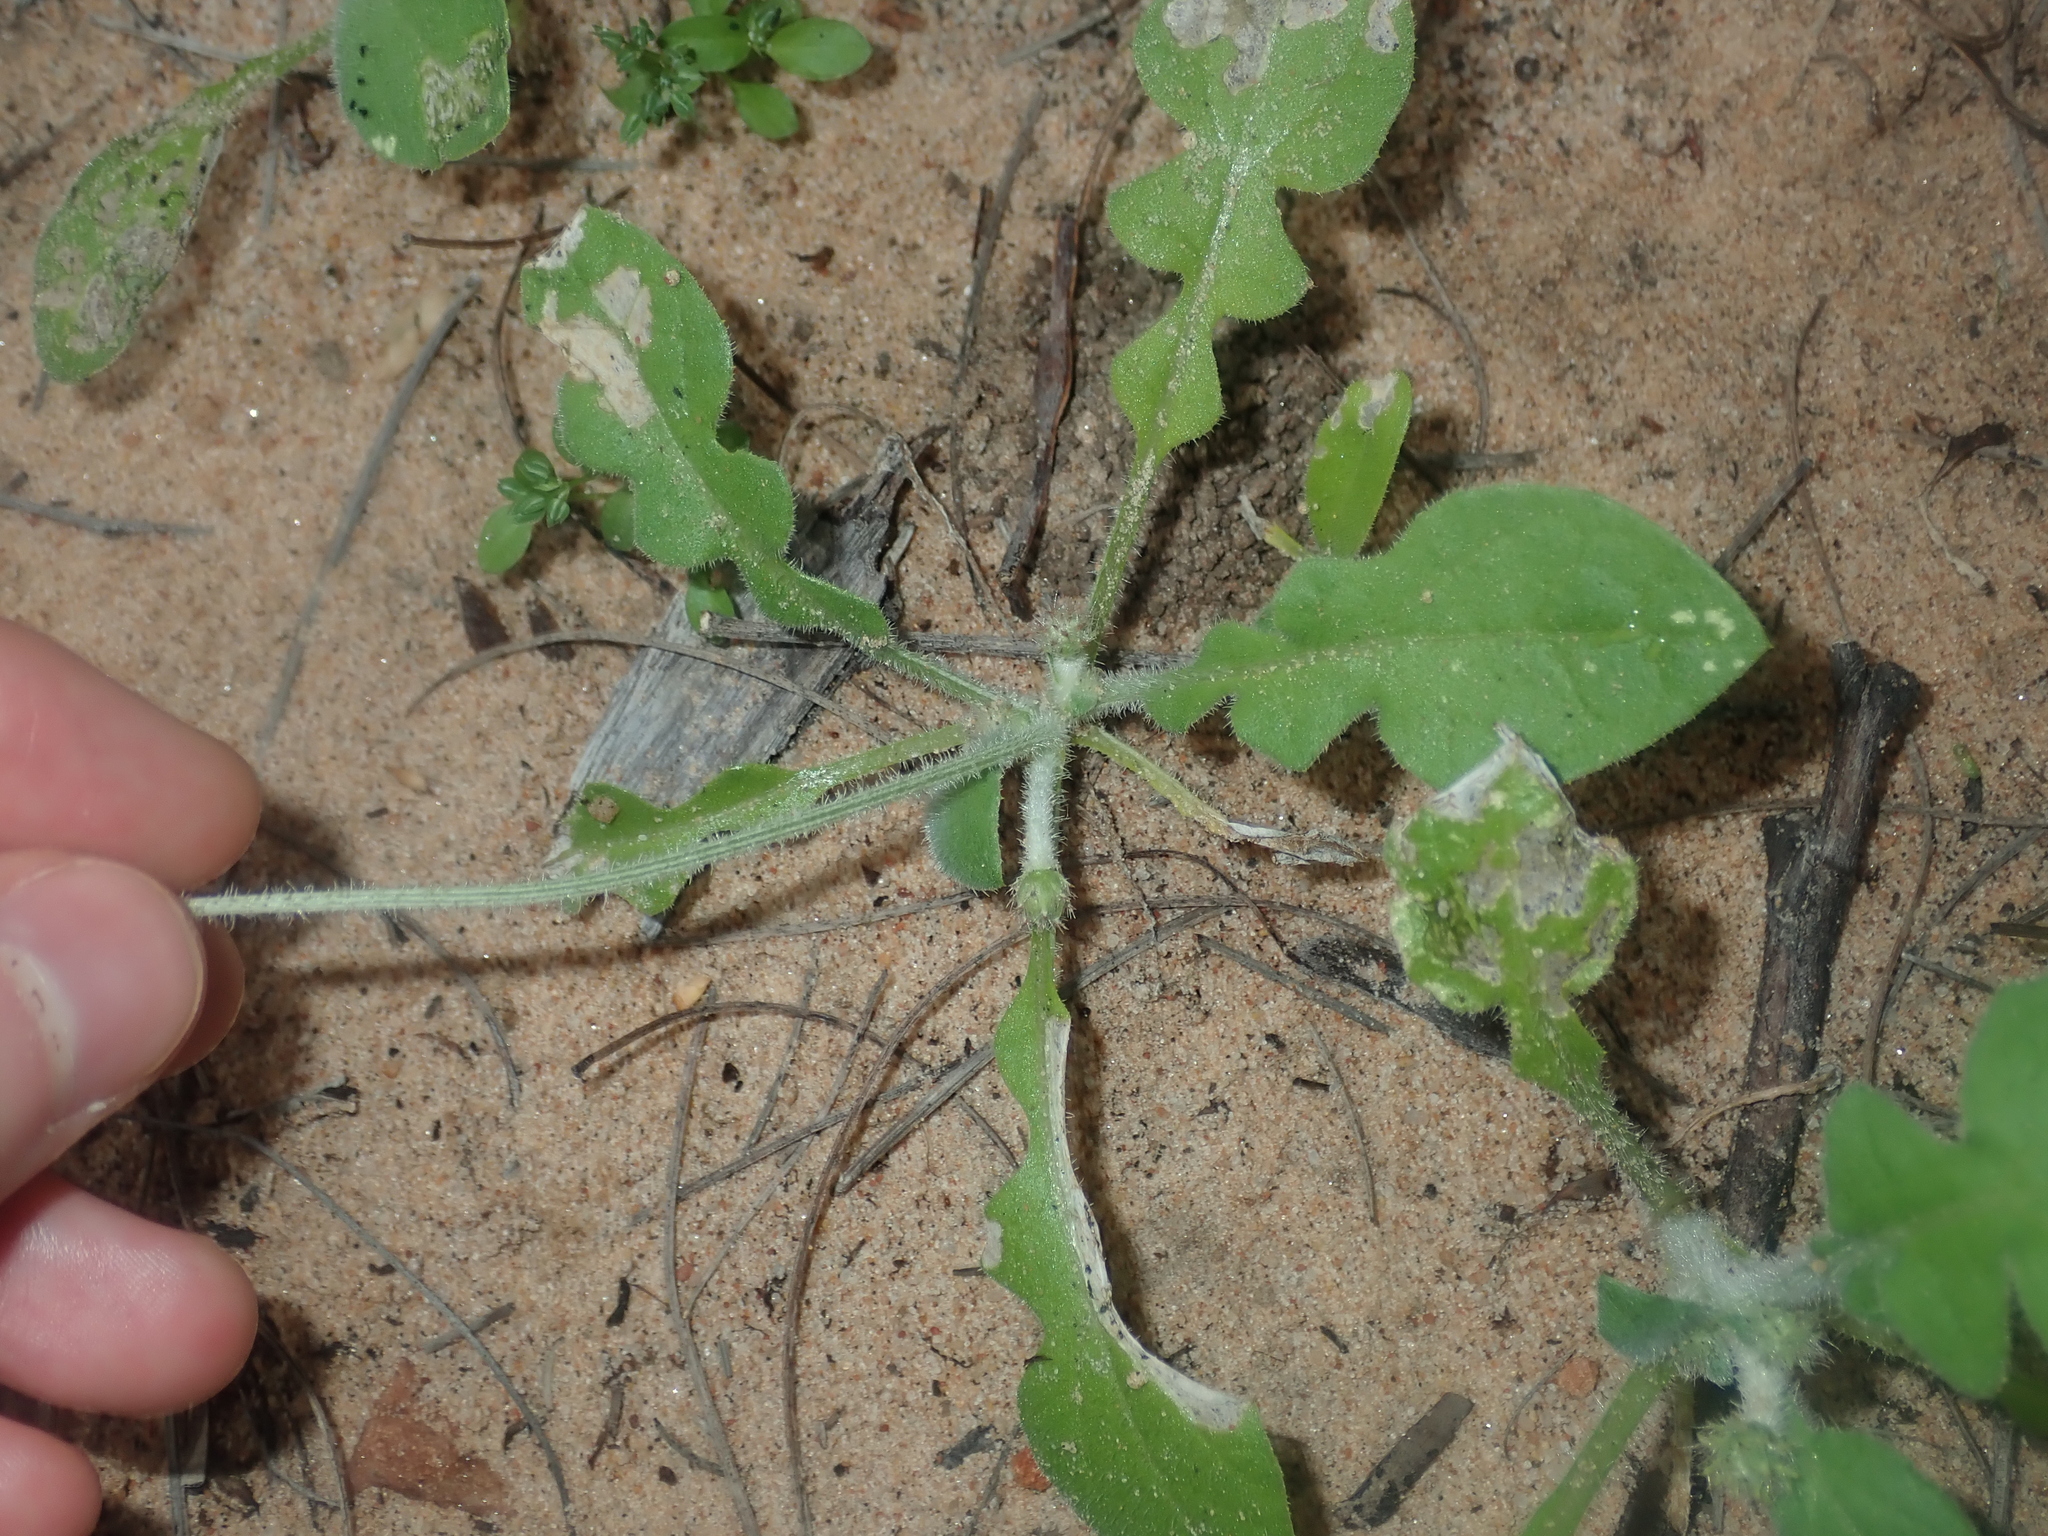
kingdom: Plantae
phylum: Tracheophyta
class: Magnoliopsida
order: Asterales
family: Asteraceae
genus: Arctotheca
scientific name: Arctotheca calendula
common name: Capeweed
